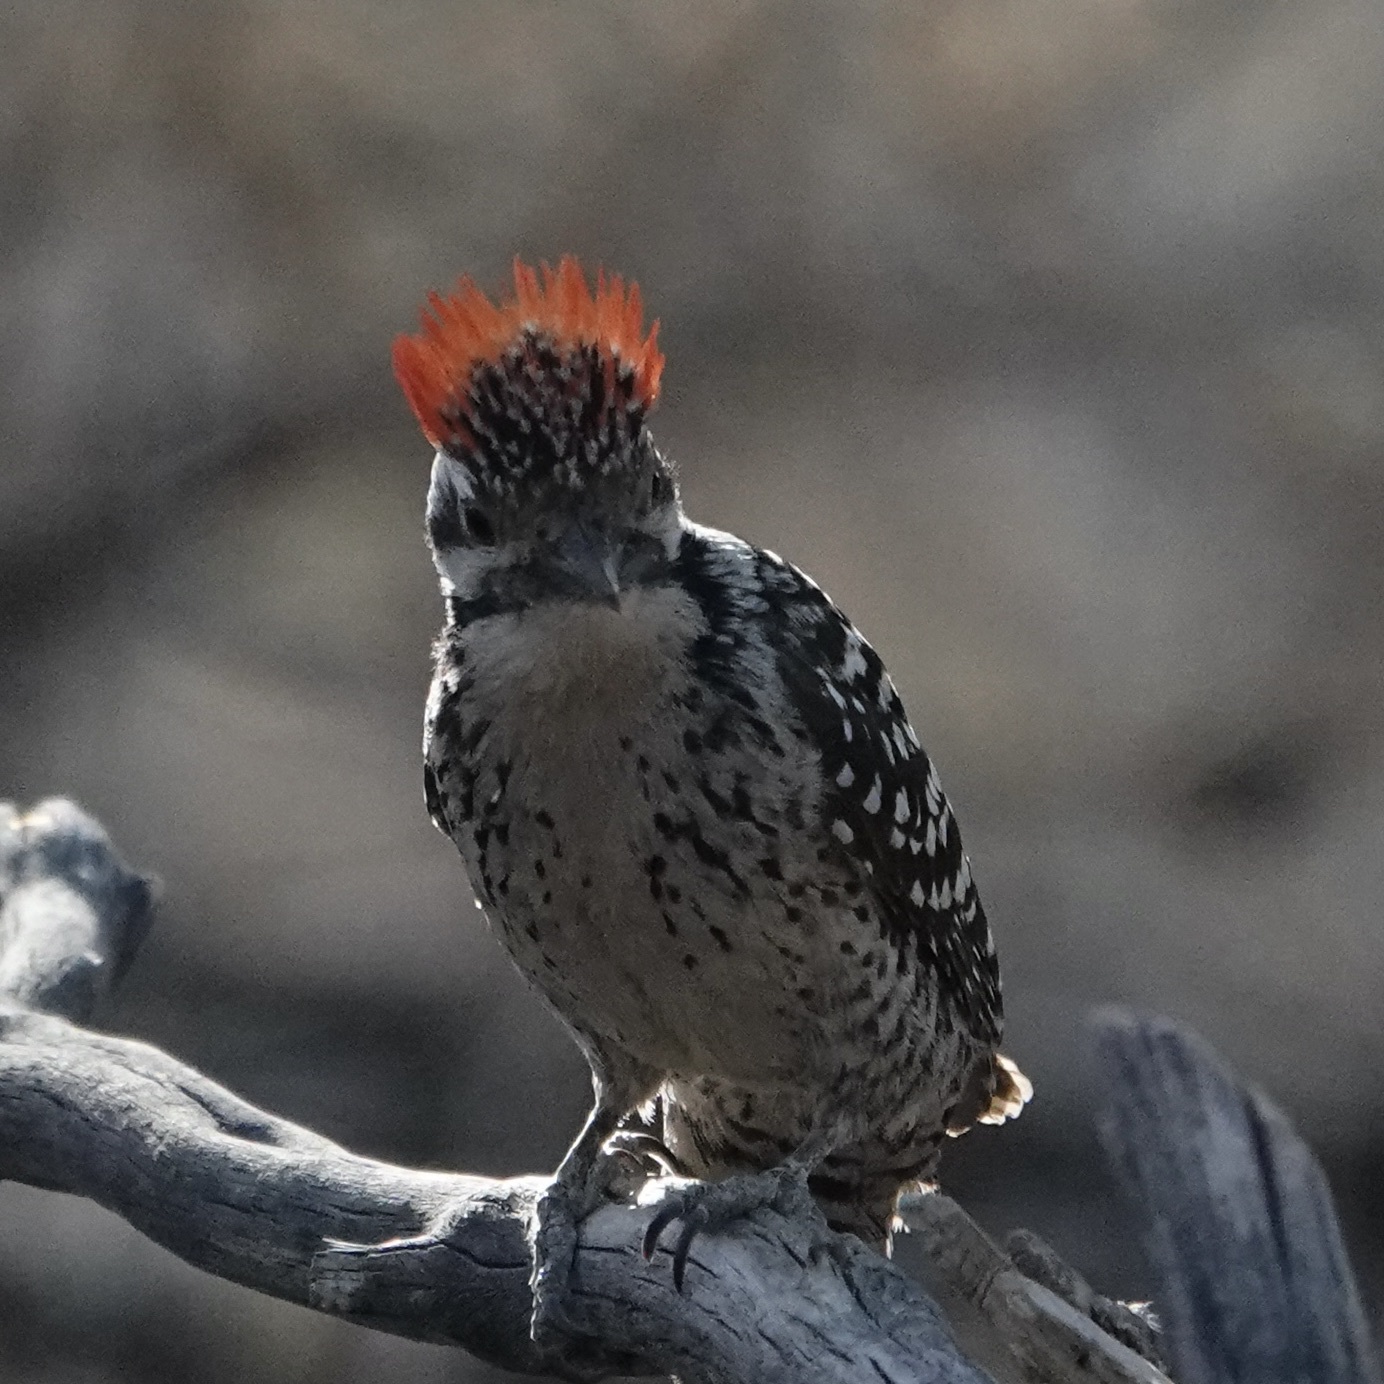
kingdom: Animalia
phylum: Chordata
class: Aves
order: Piciformes
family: Picidae
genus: Dryobates
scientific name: Dryobates scalaris
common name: Ladder-backed woodpecker
